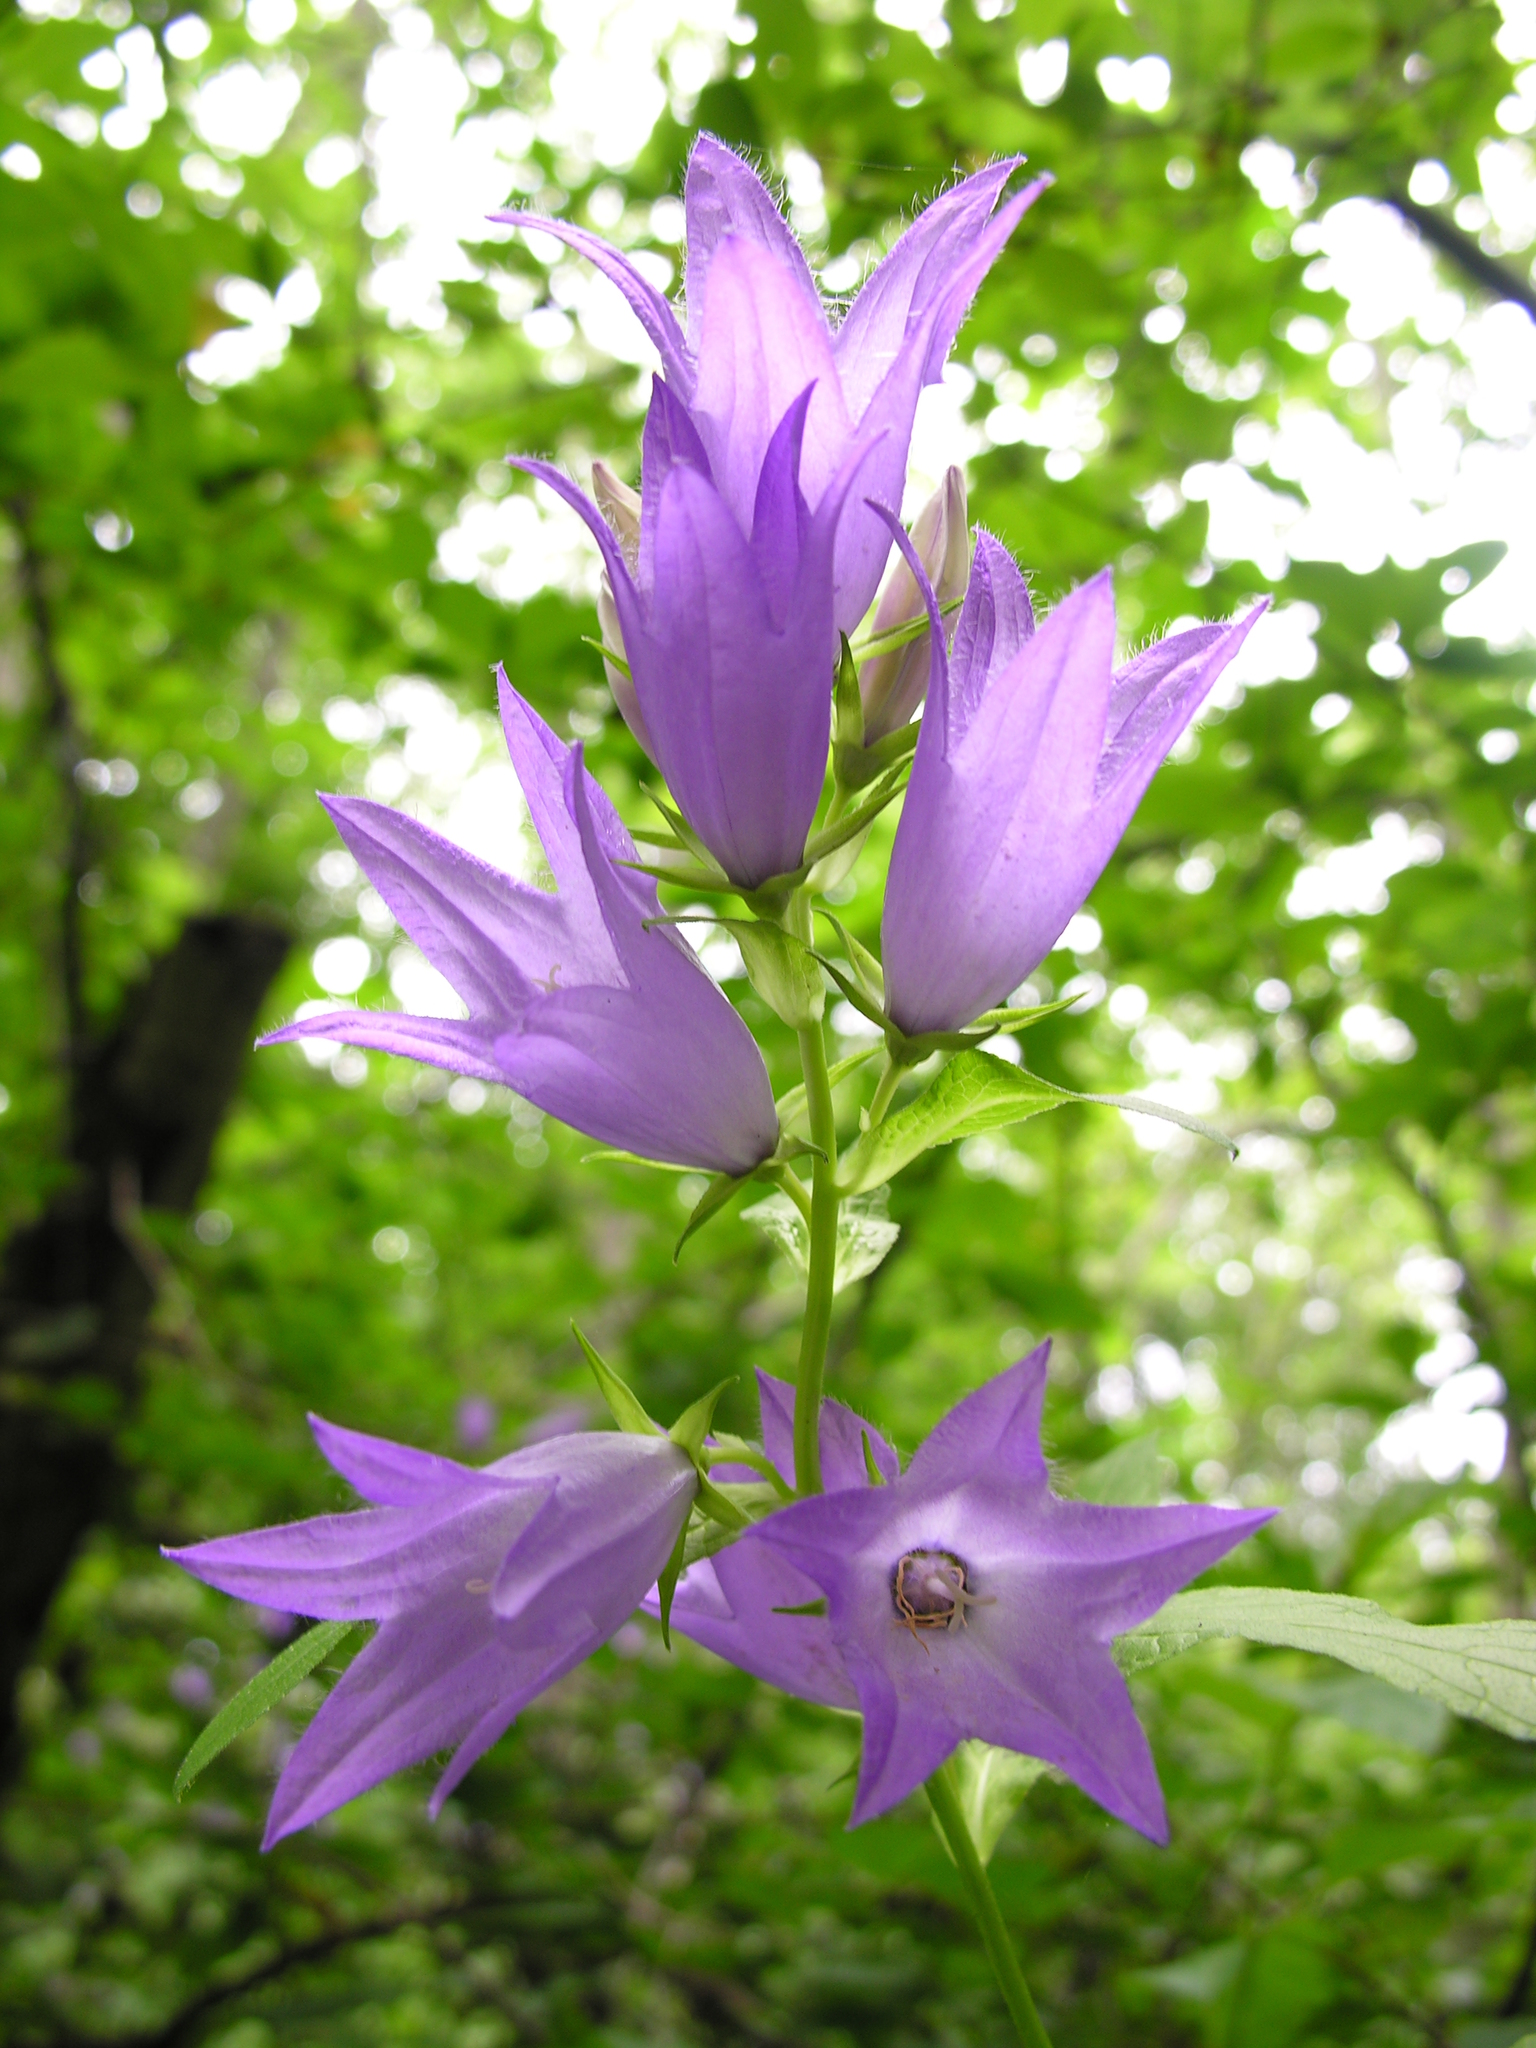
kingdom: Plantae
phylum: Tracheophyta
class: Magnoliopsida
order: Asterales
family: Campanulaceae
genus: Campanula
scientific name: Campanula latifolia
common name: Giant bellflower
